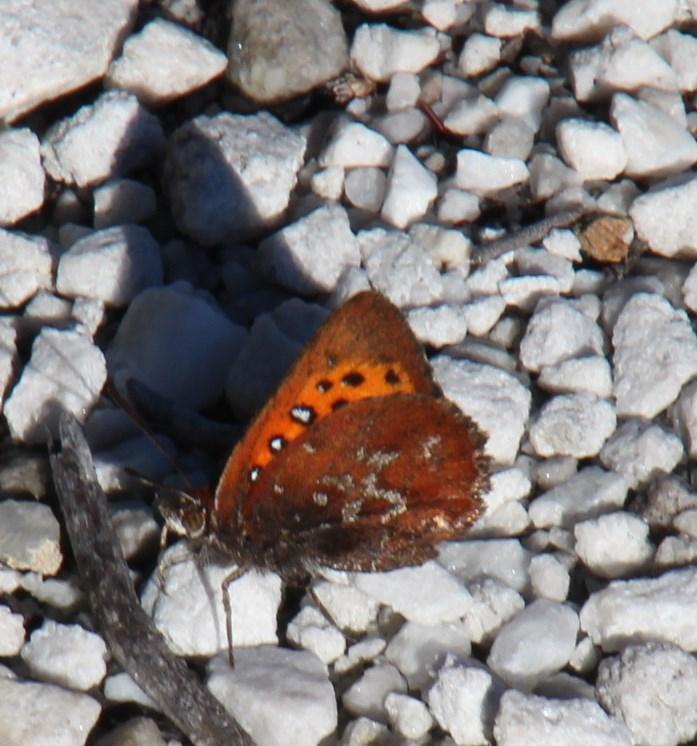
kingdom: Animalia
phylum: Arthropoda
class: Insecta
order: Lepidoptera
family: Lycaenidae
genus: Aloeides
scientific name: Aloeides quickelbergei
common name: Quickelberge's copper
